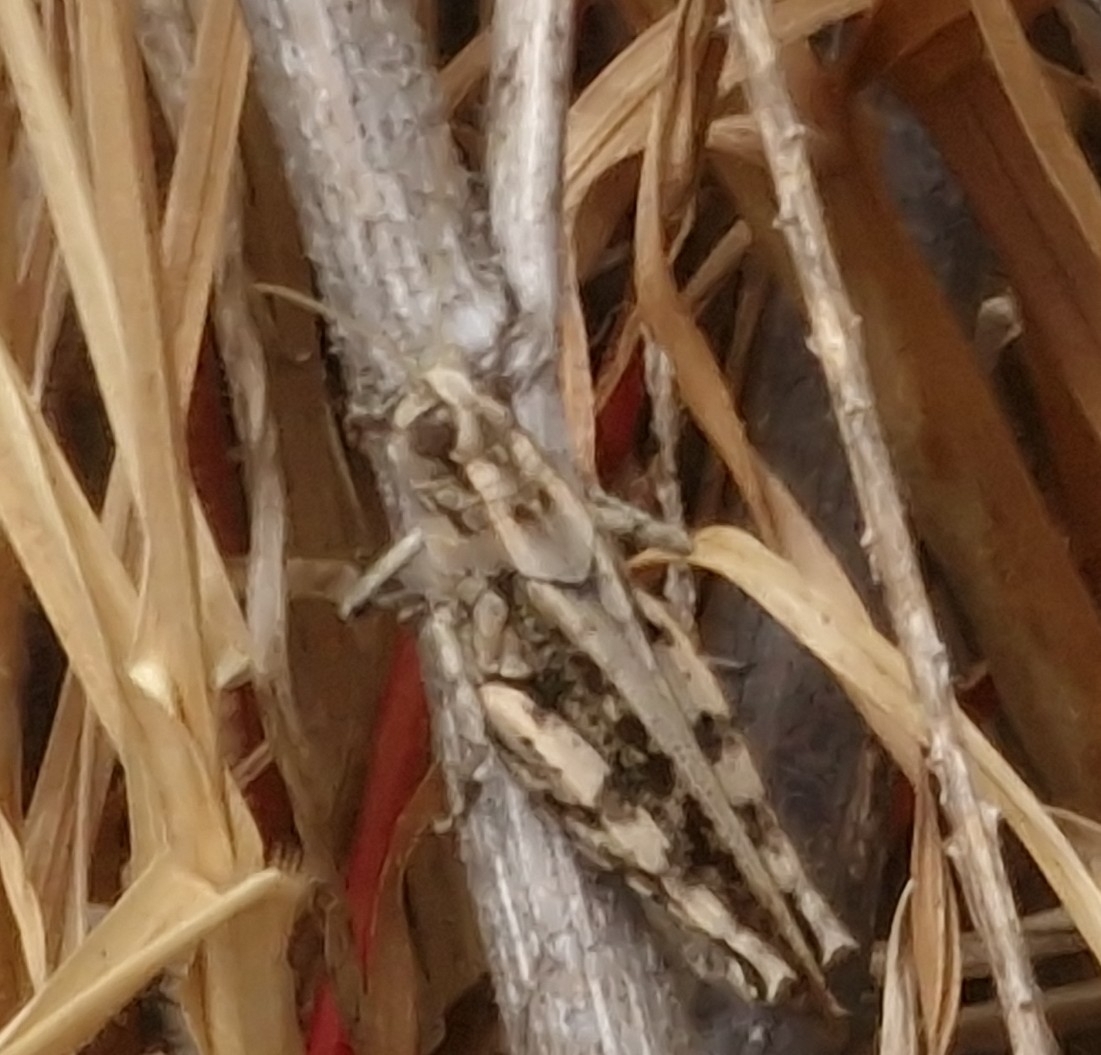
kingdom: Animalia
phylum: Arthropoda
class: Insecta
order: Orthoptera
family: Acrididae
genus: Calliptamus
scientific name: Calliptamus madeirae
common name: Madeira pincer grasshopper
